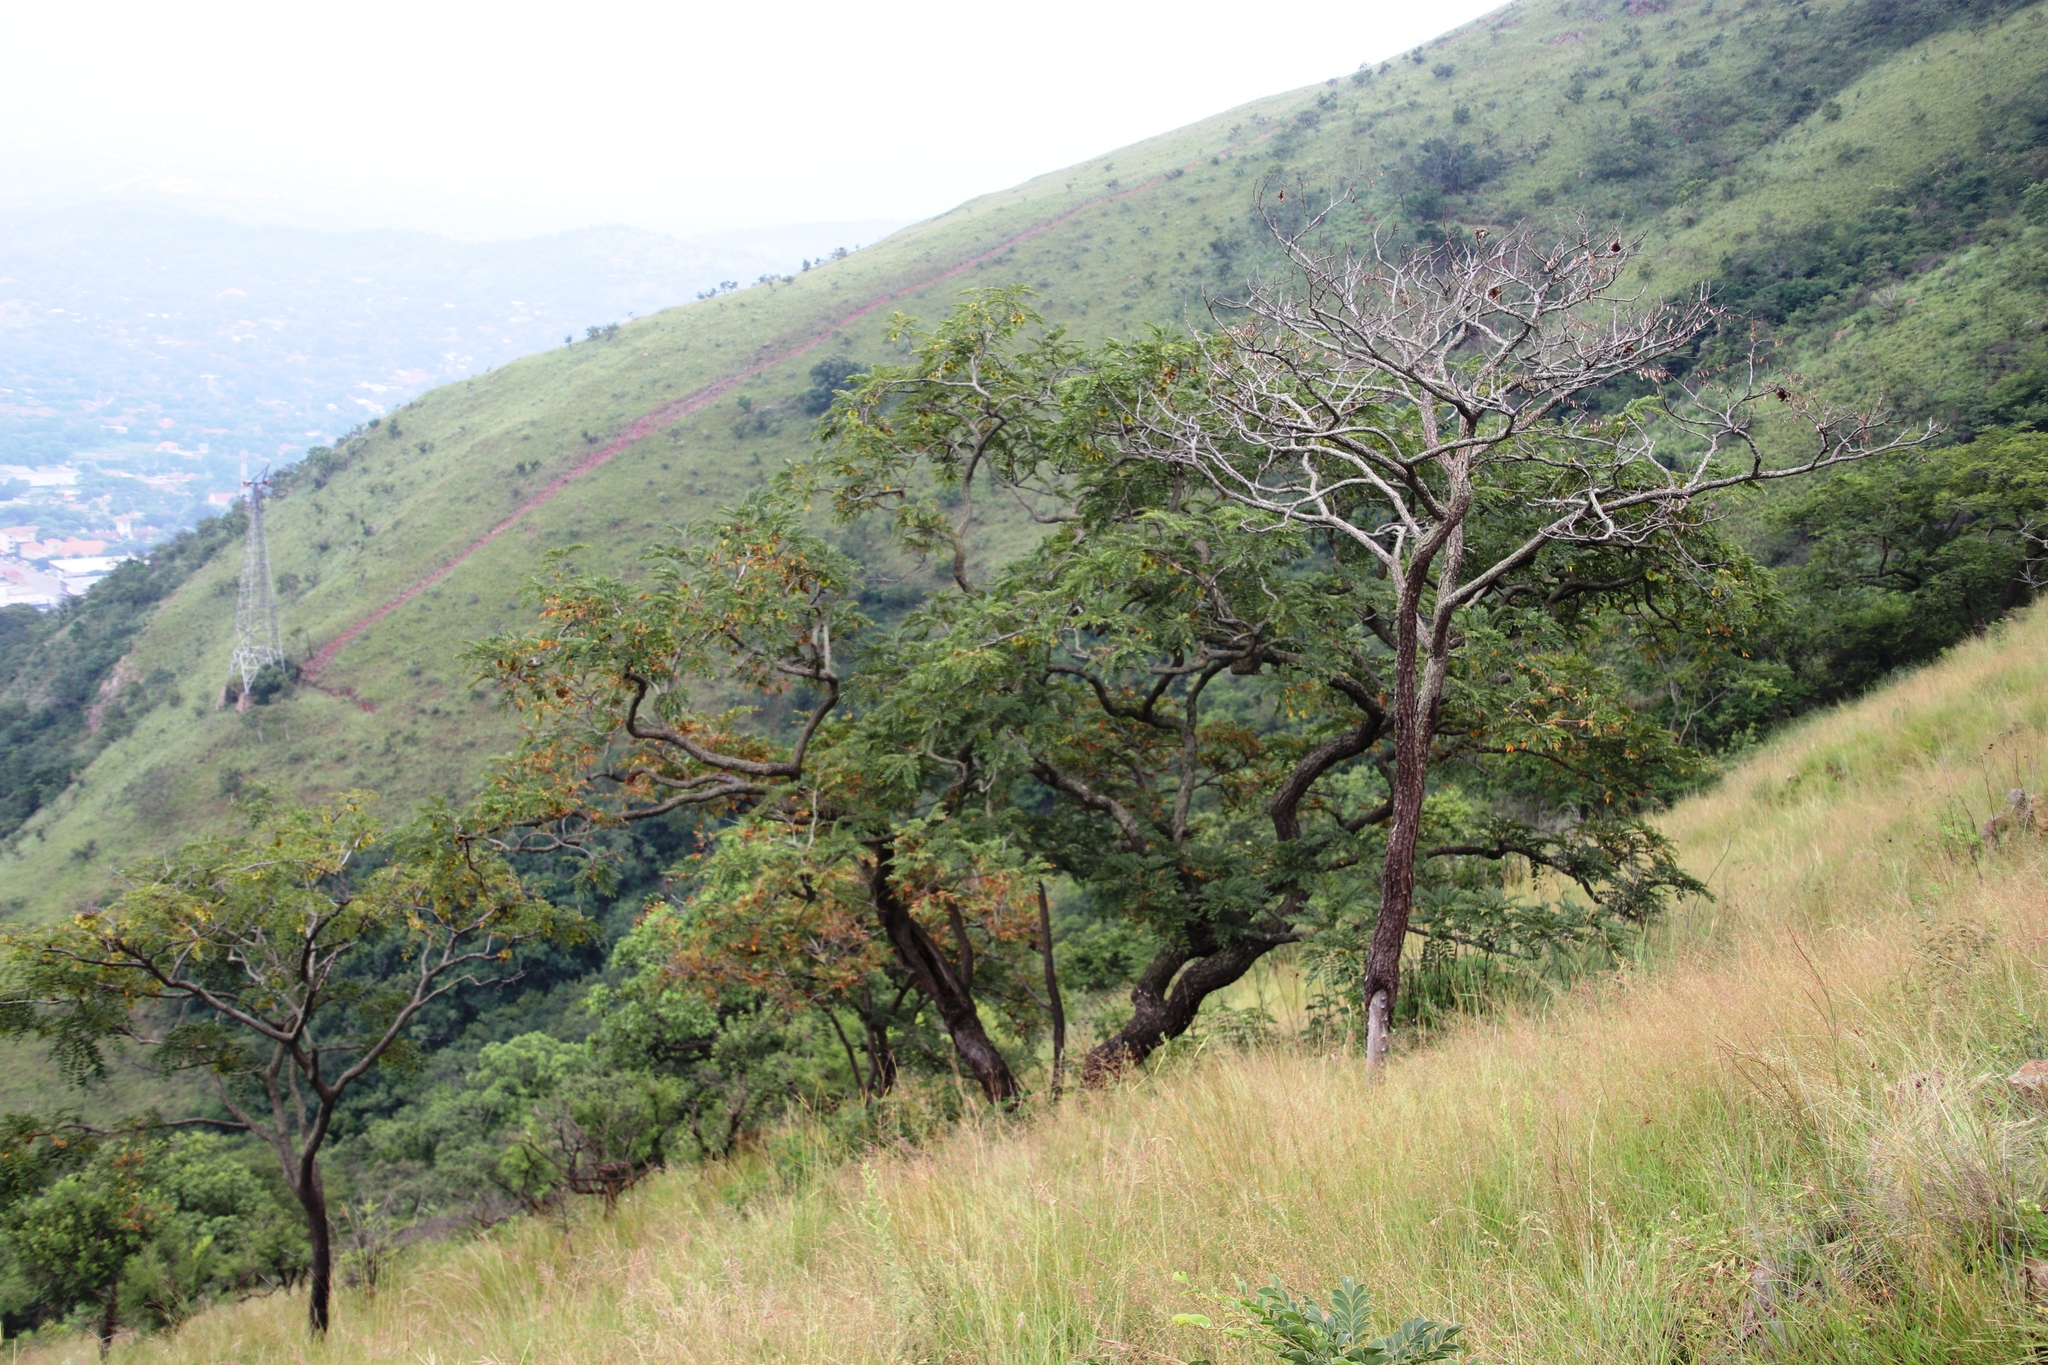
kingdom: Plantae
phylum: Tracheophyta
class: Magnoliopsida
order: Fabales
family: Fabaceae
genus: Pterocarpus
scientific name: Pterocarpus angolensis
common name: Bloodwood tree
